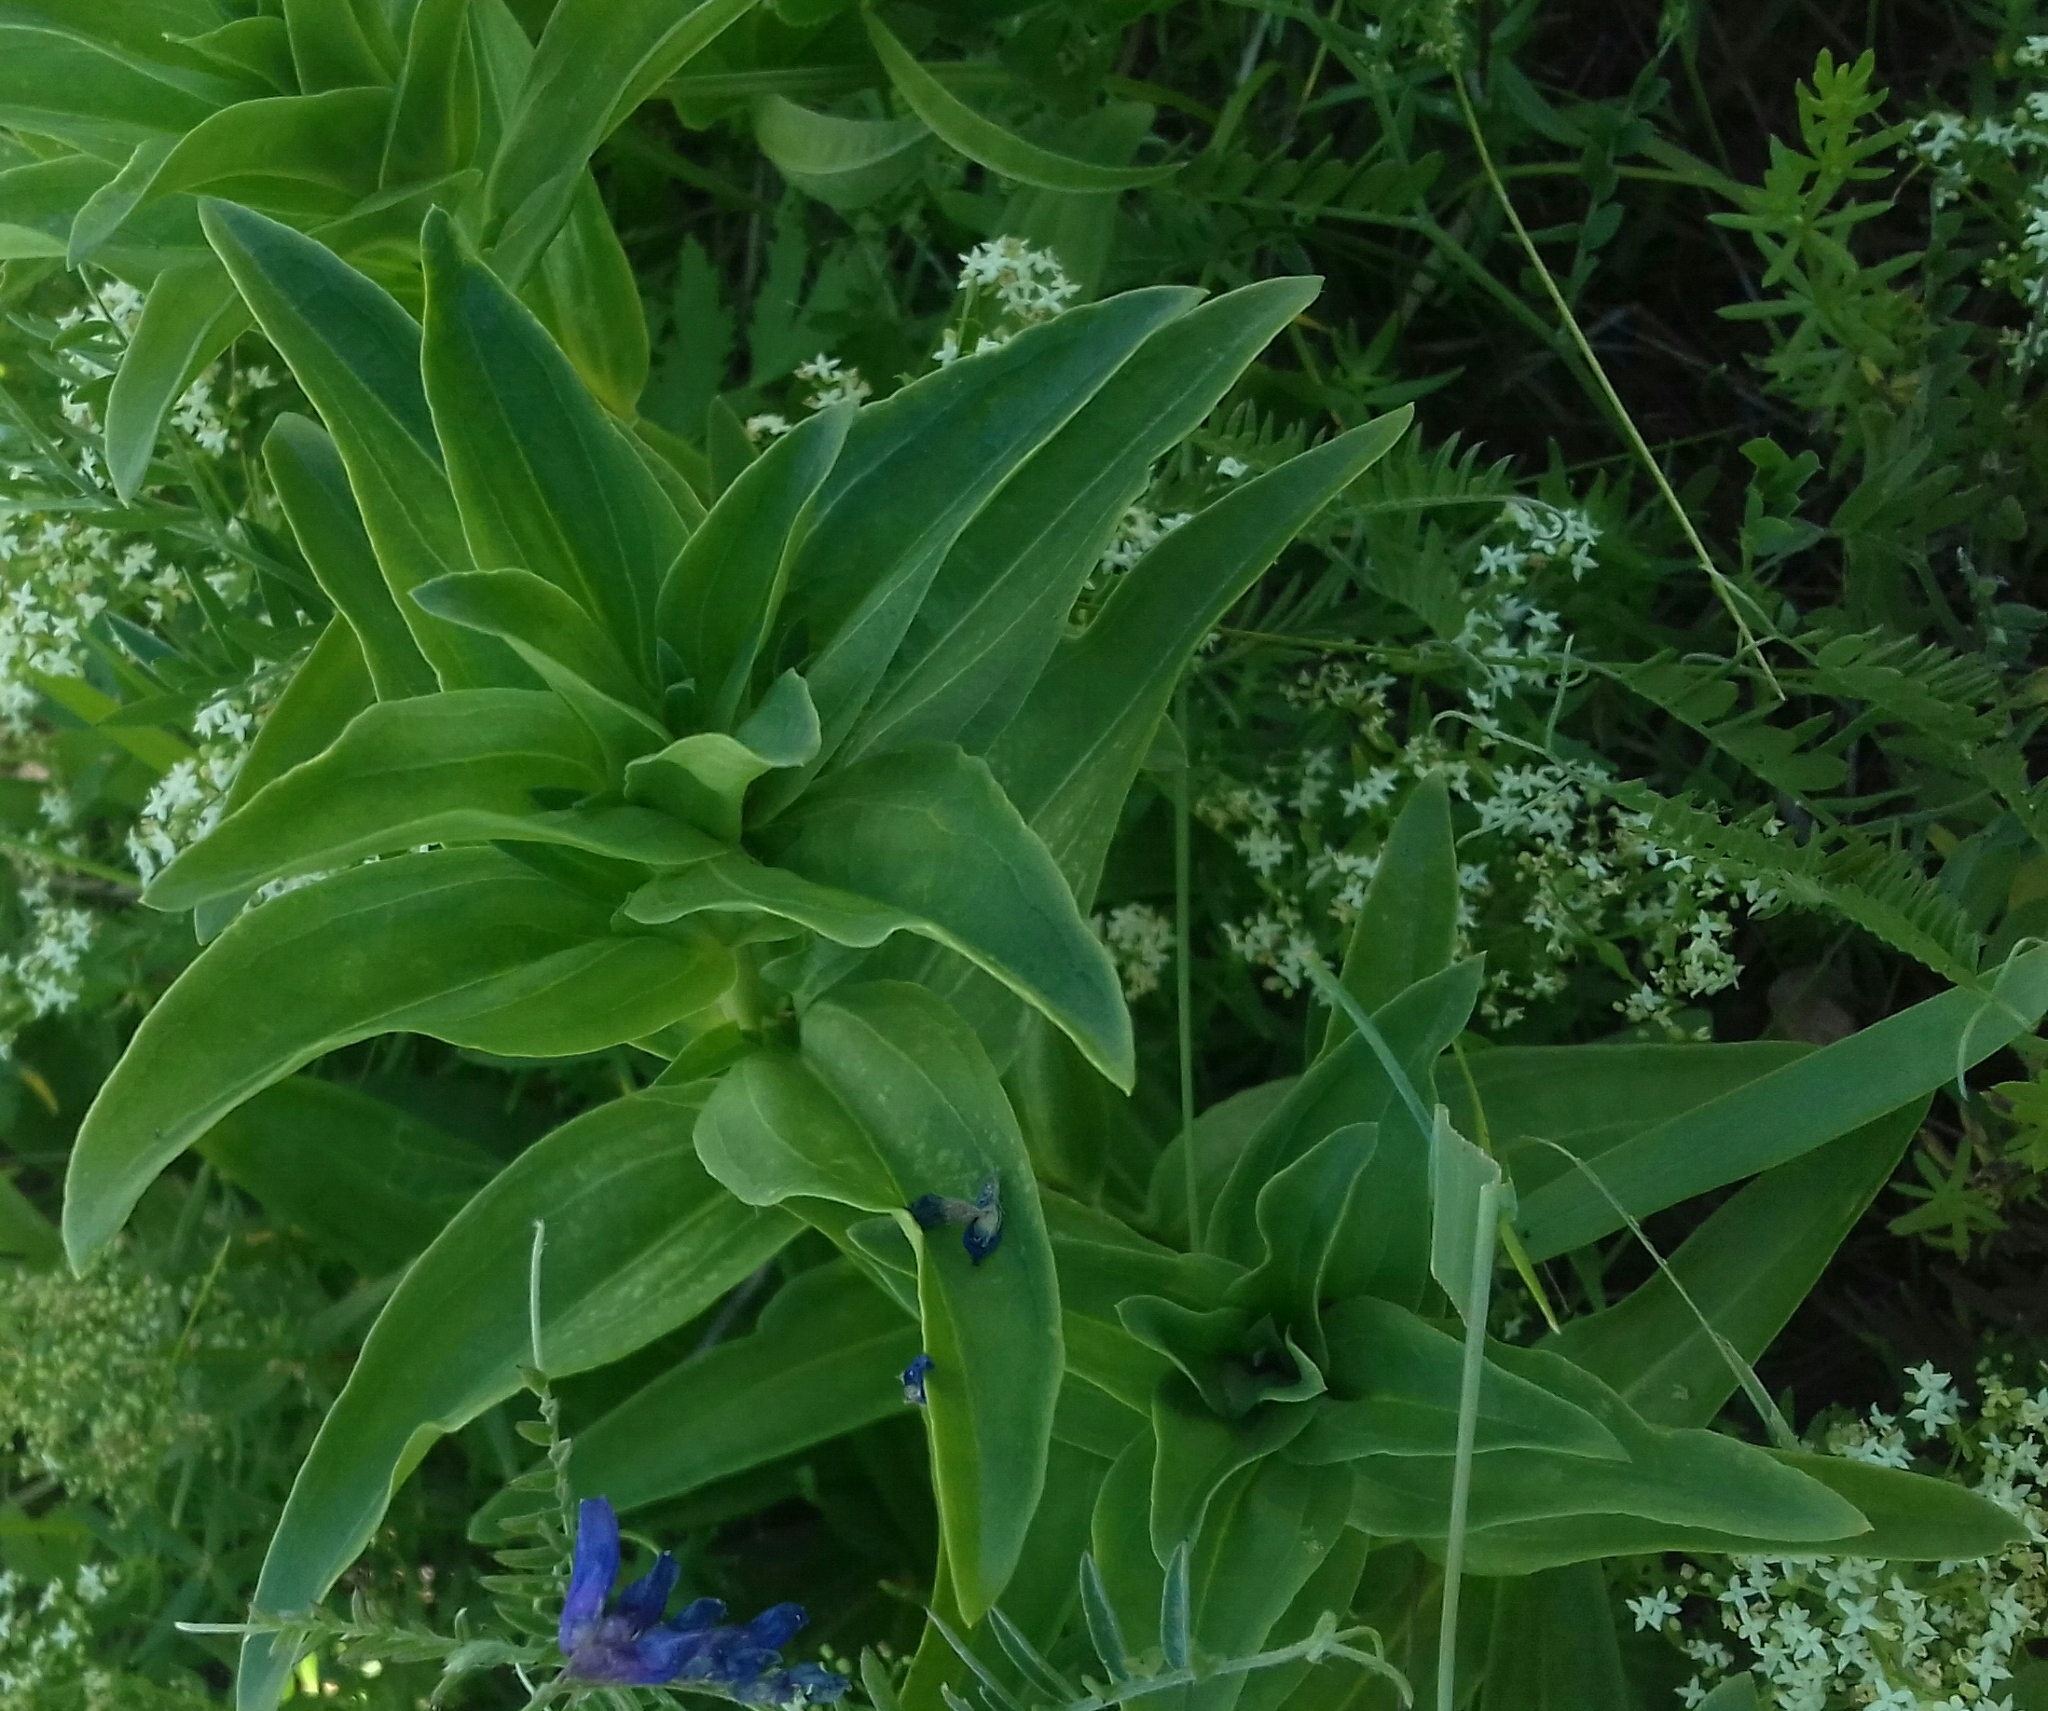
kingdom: Plantae
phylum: Tracheophyta
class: Magnoliopsida
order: Gentianales
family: Gentianaceae
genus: Gentiana
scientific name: Gentiana cruciata
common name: Cross gentian
